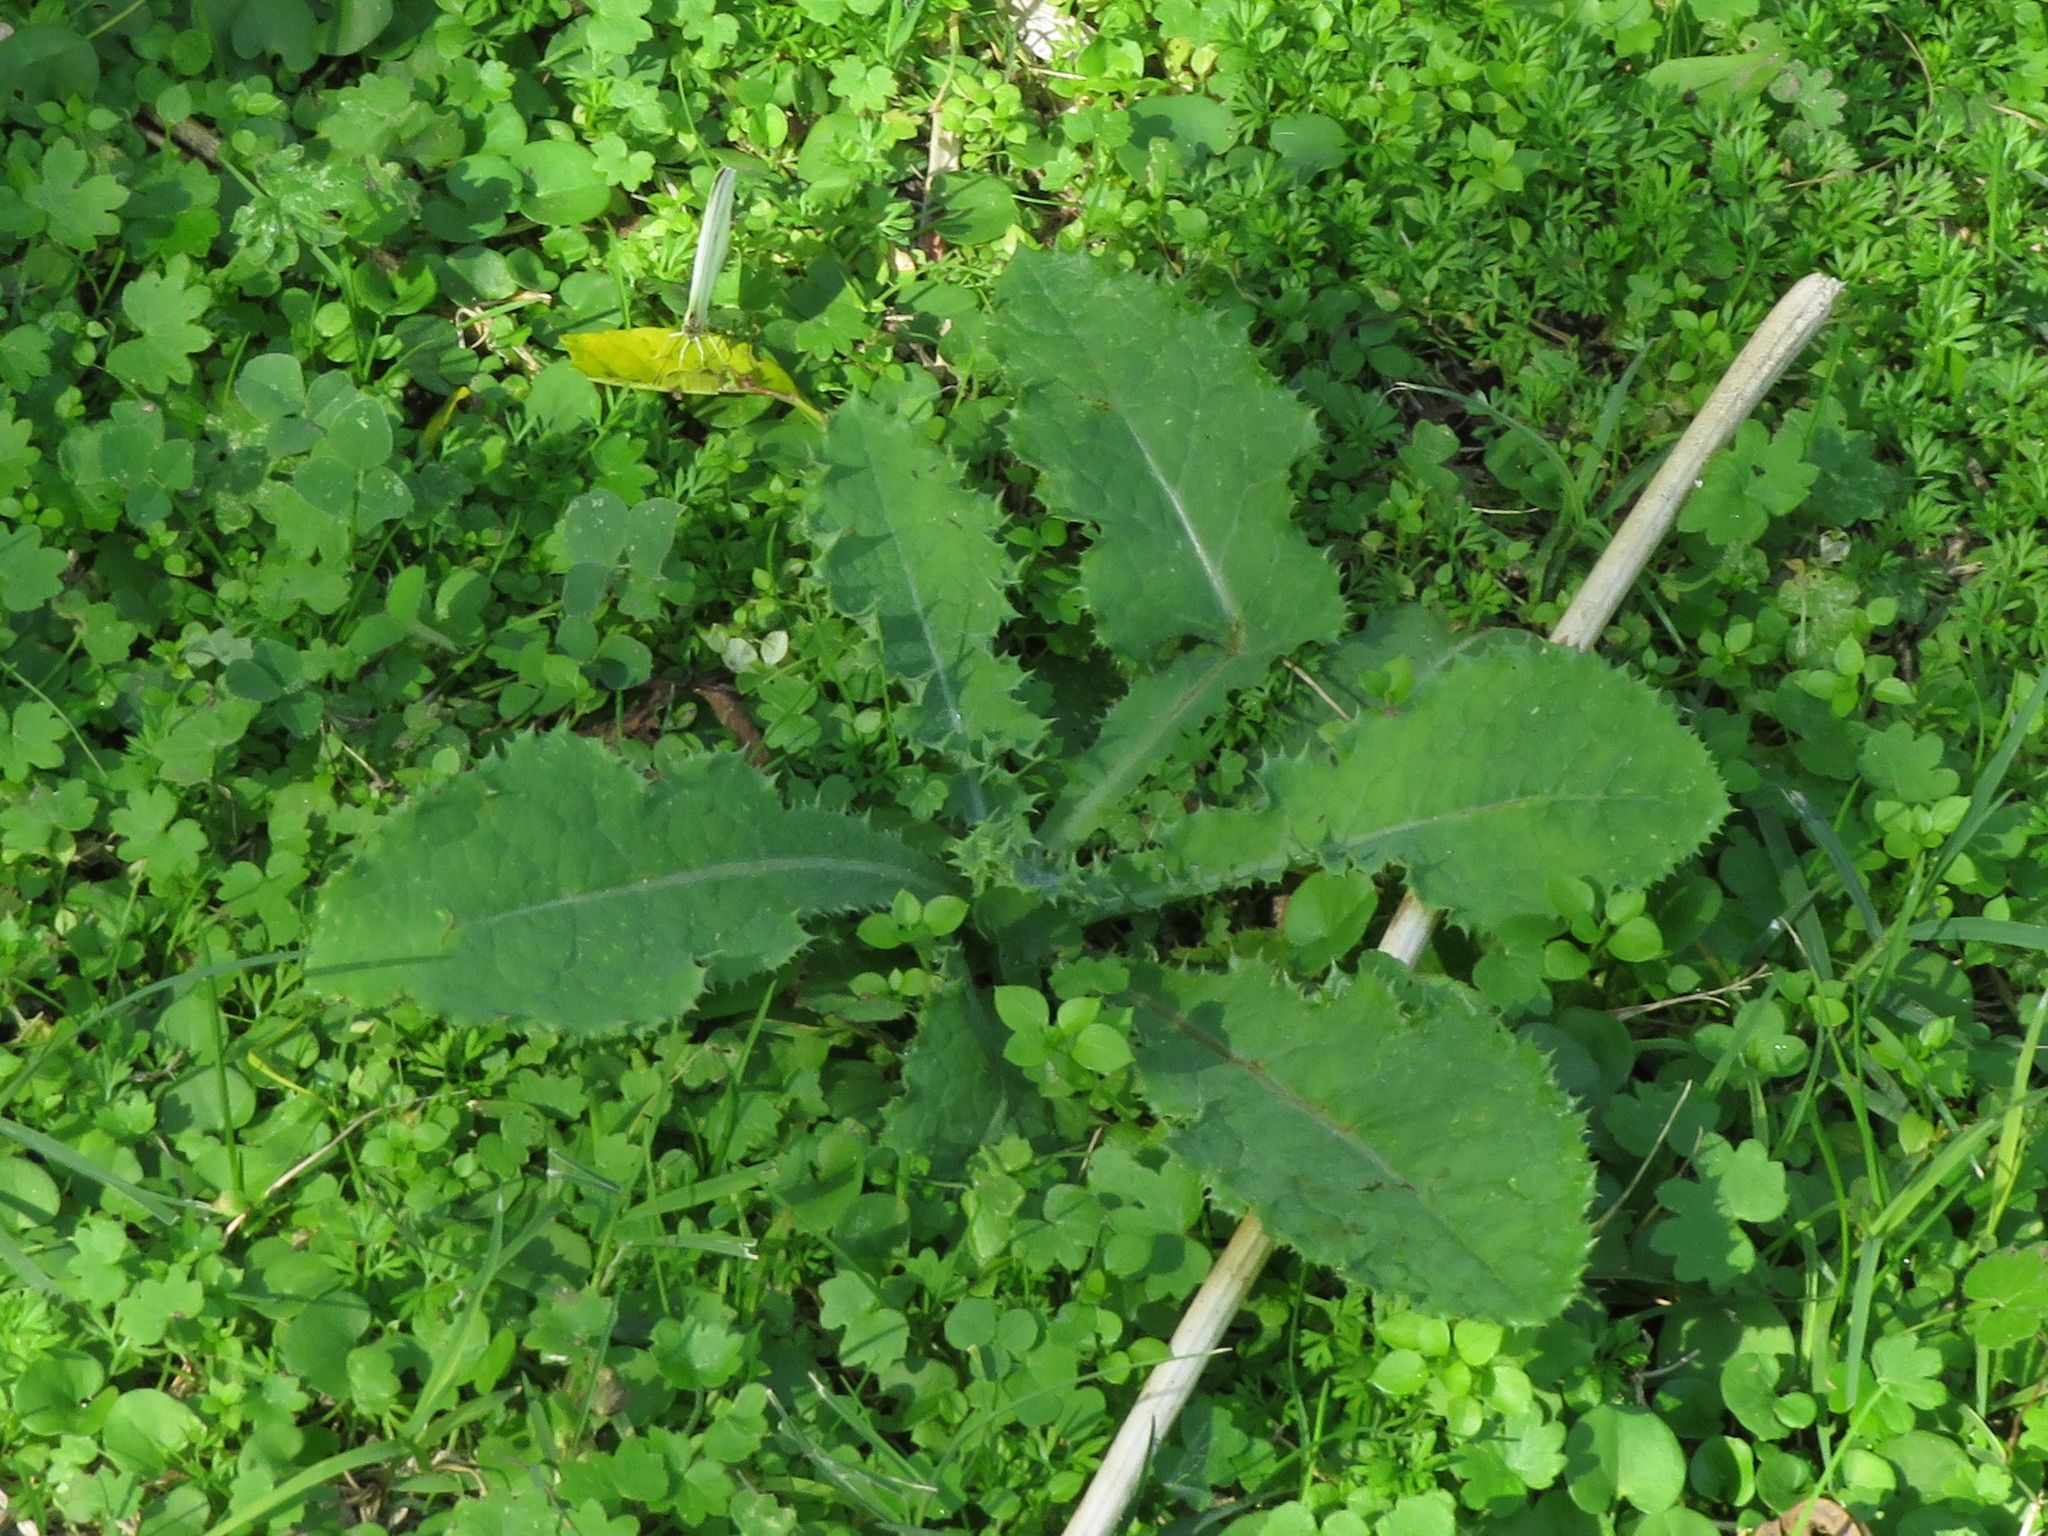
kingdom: Plantae
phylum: Tracheophyta
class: Magnoliopsida
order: Asterales
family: Asteraceae
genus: Sonchus
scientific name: Sonchus asper
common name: Prickly sow-thistle
